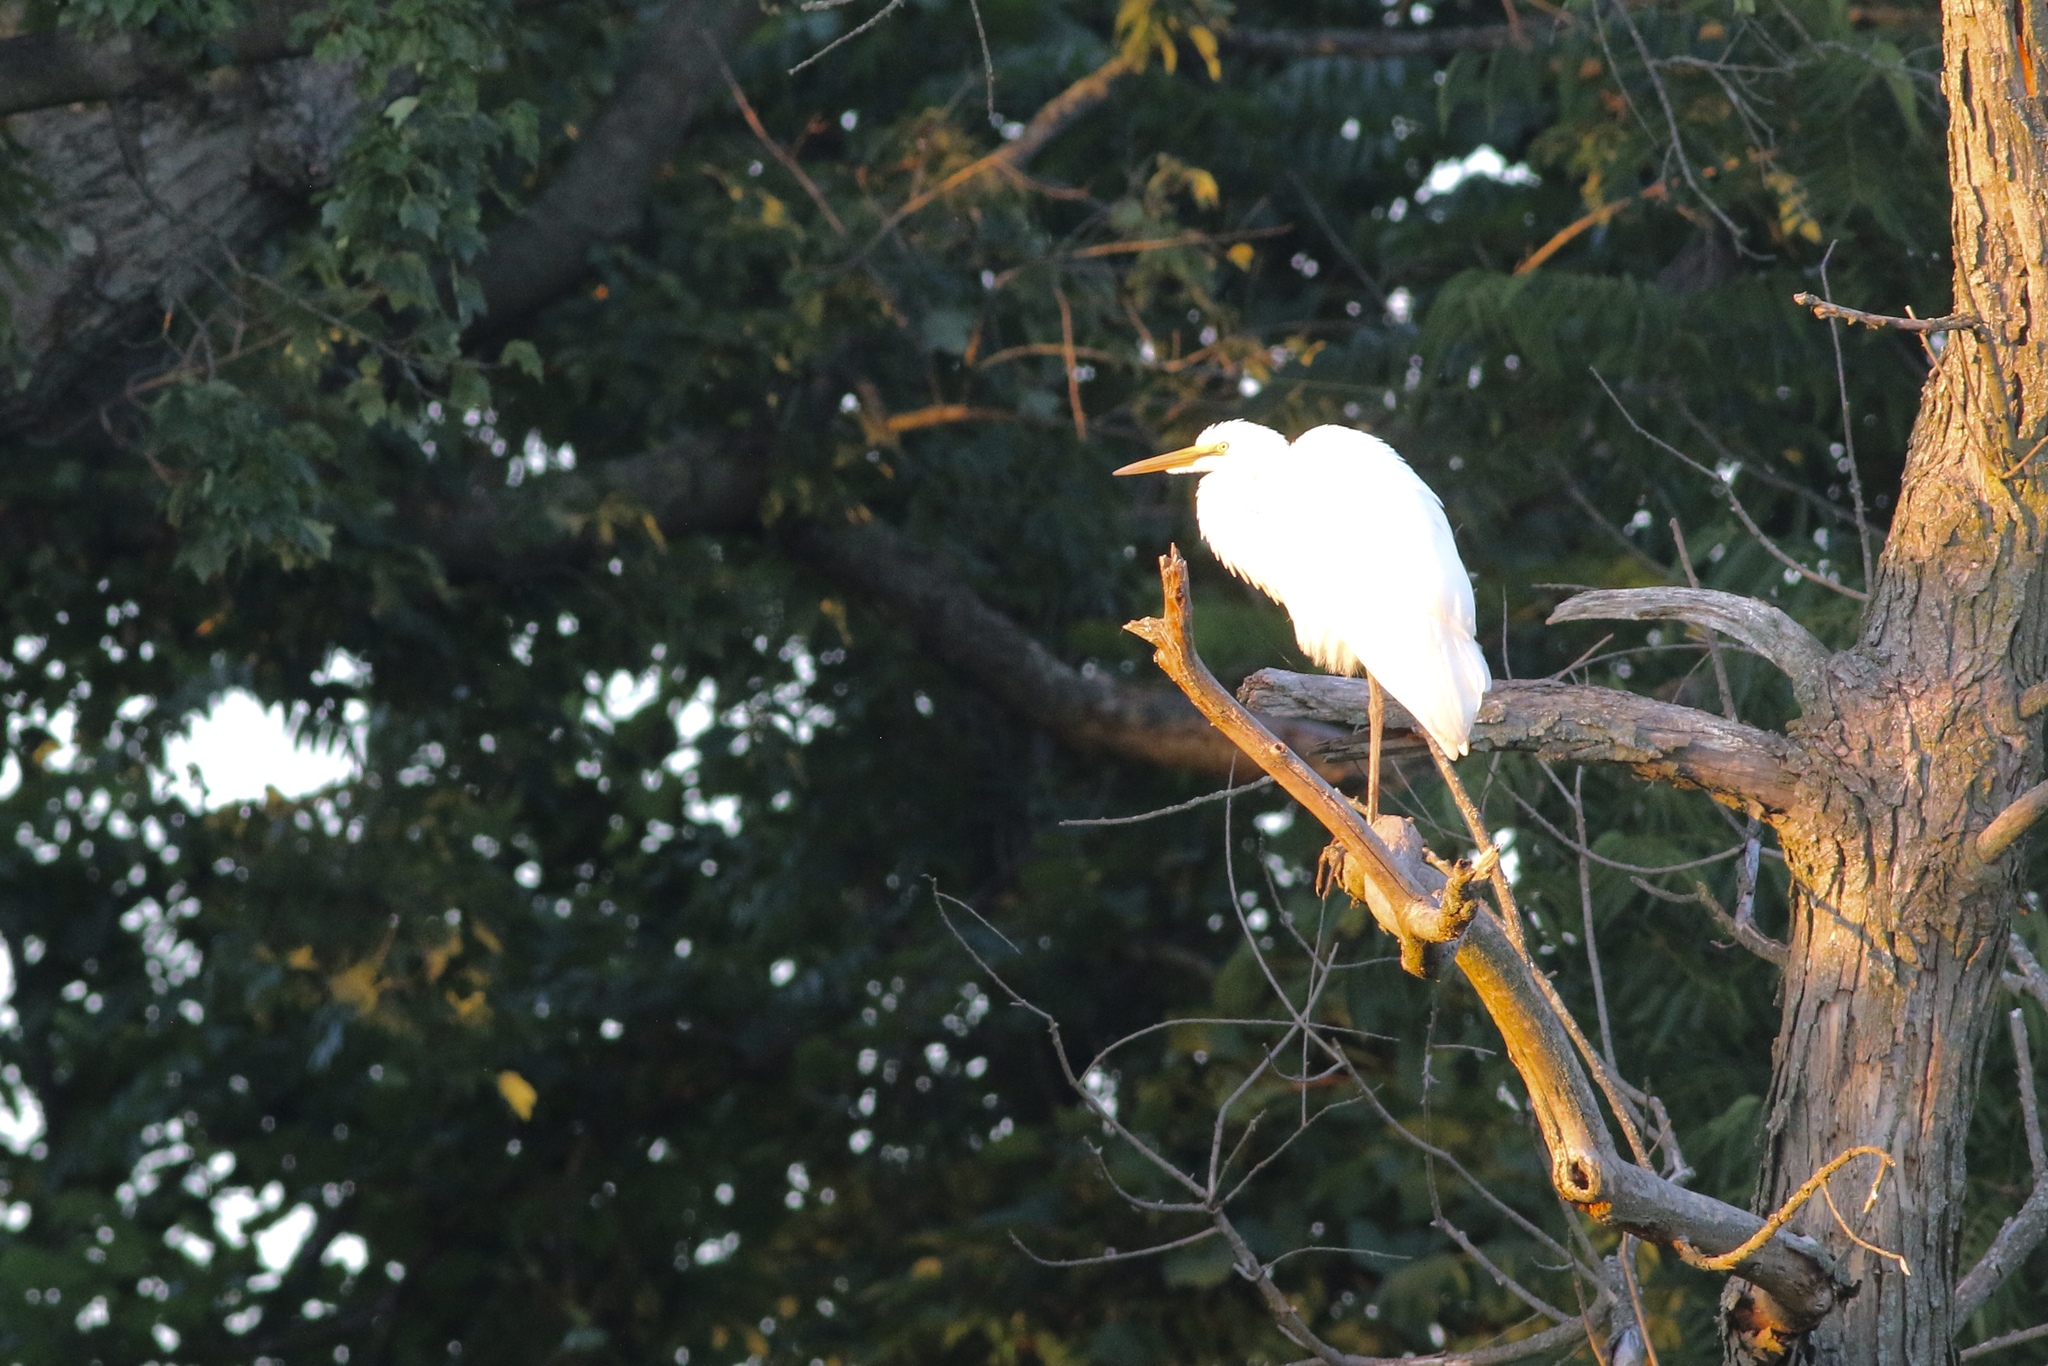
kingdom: Animalia
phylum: Chordata
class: Aves
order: Pelecaniformes
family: Ardeidae
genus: Ardea
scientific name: Ardea alba
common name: Great egret
